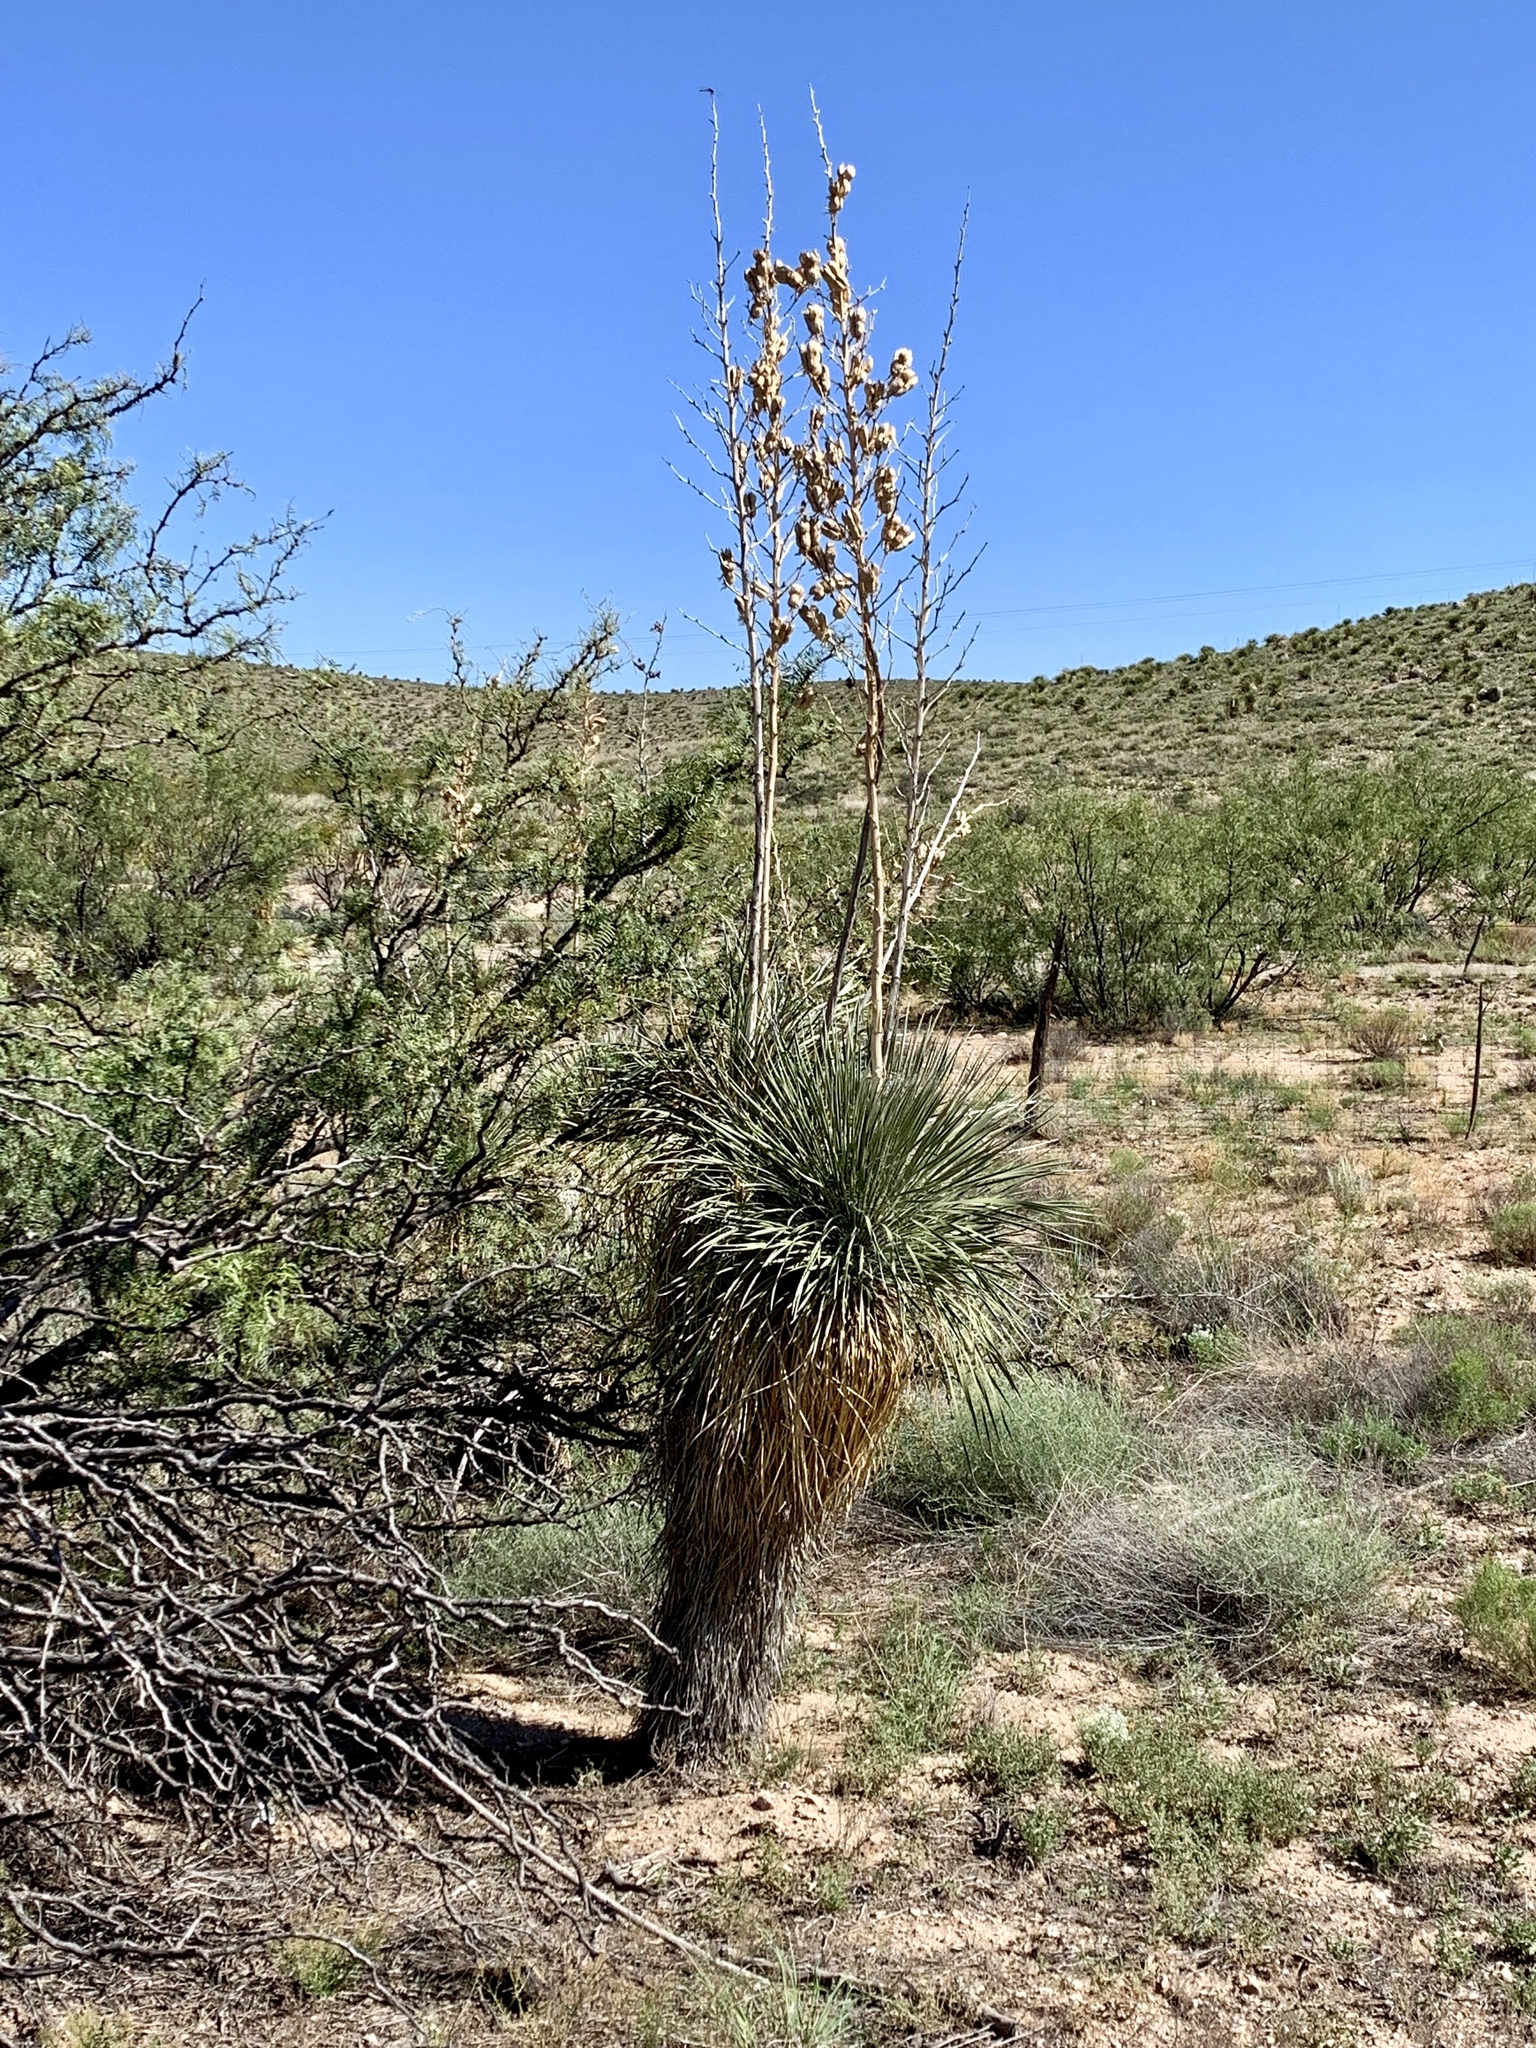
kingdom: Plantae
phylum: Tracheophyta
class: Liliopsida
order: Asparagales
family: Asparagaceae
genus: Yucca
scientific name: Yucca elata
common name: Palmella
